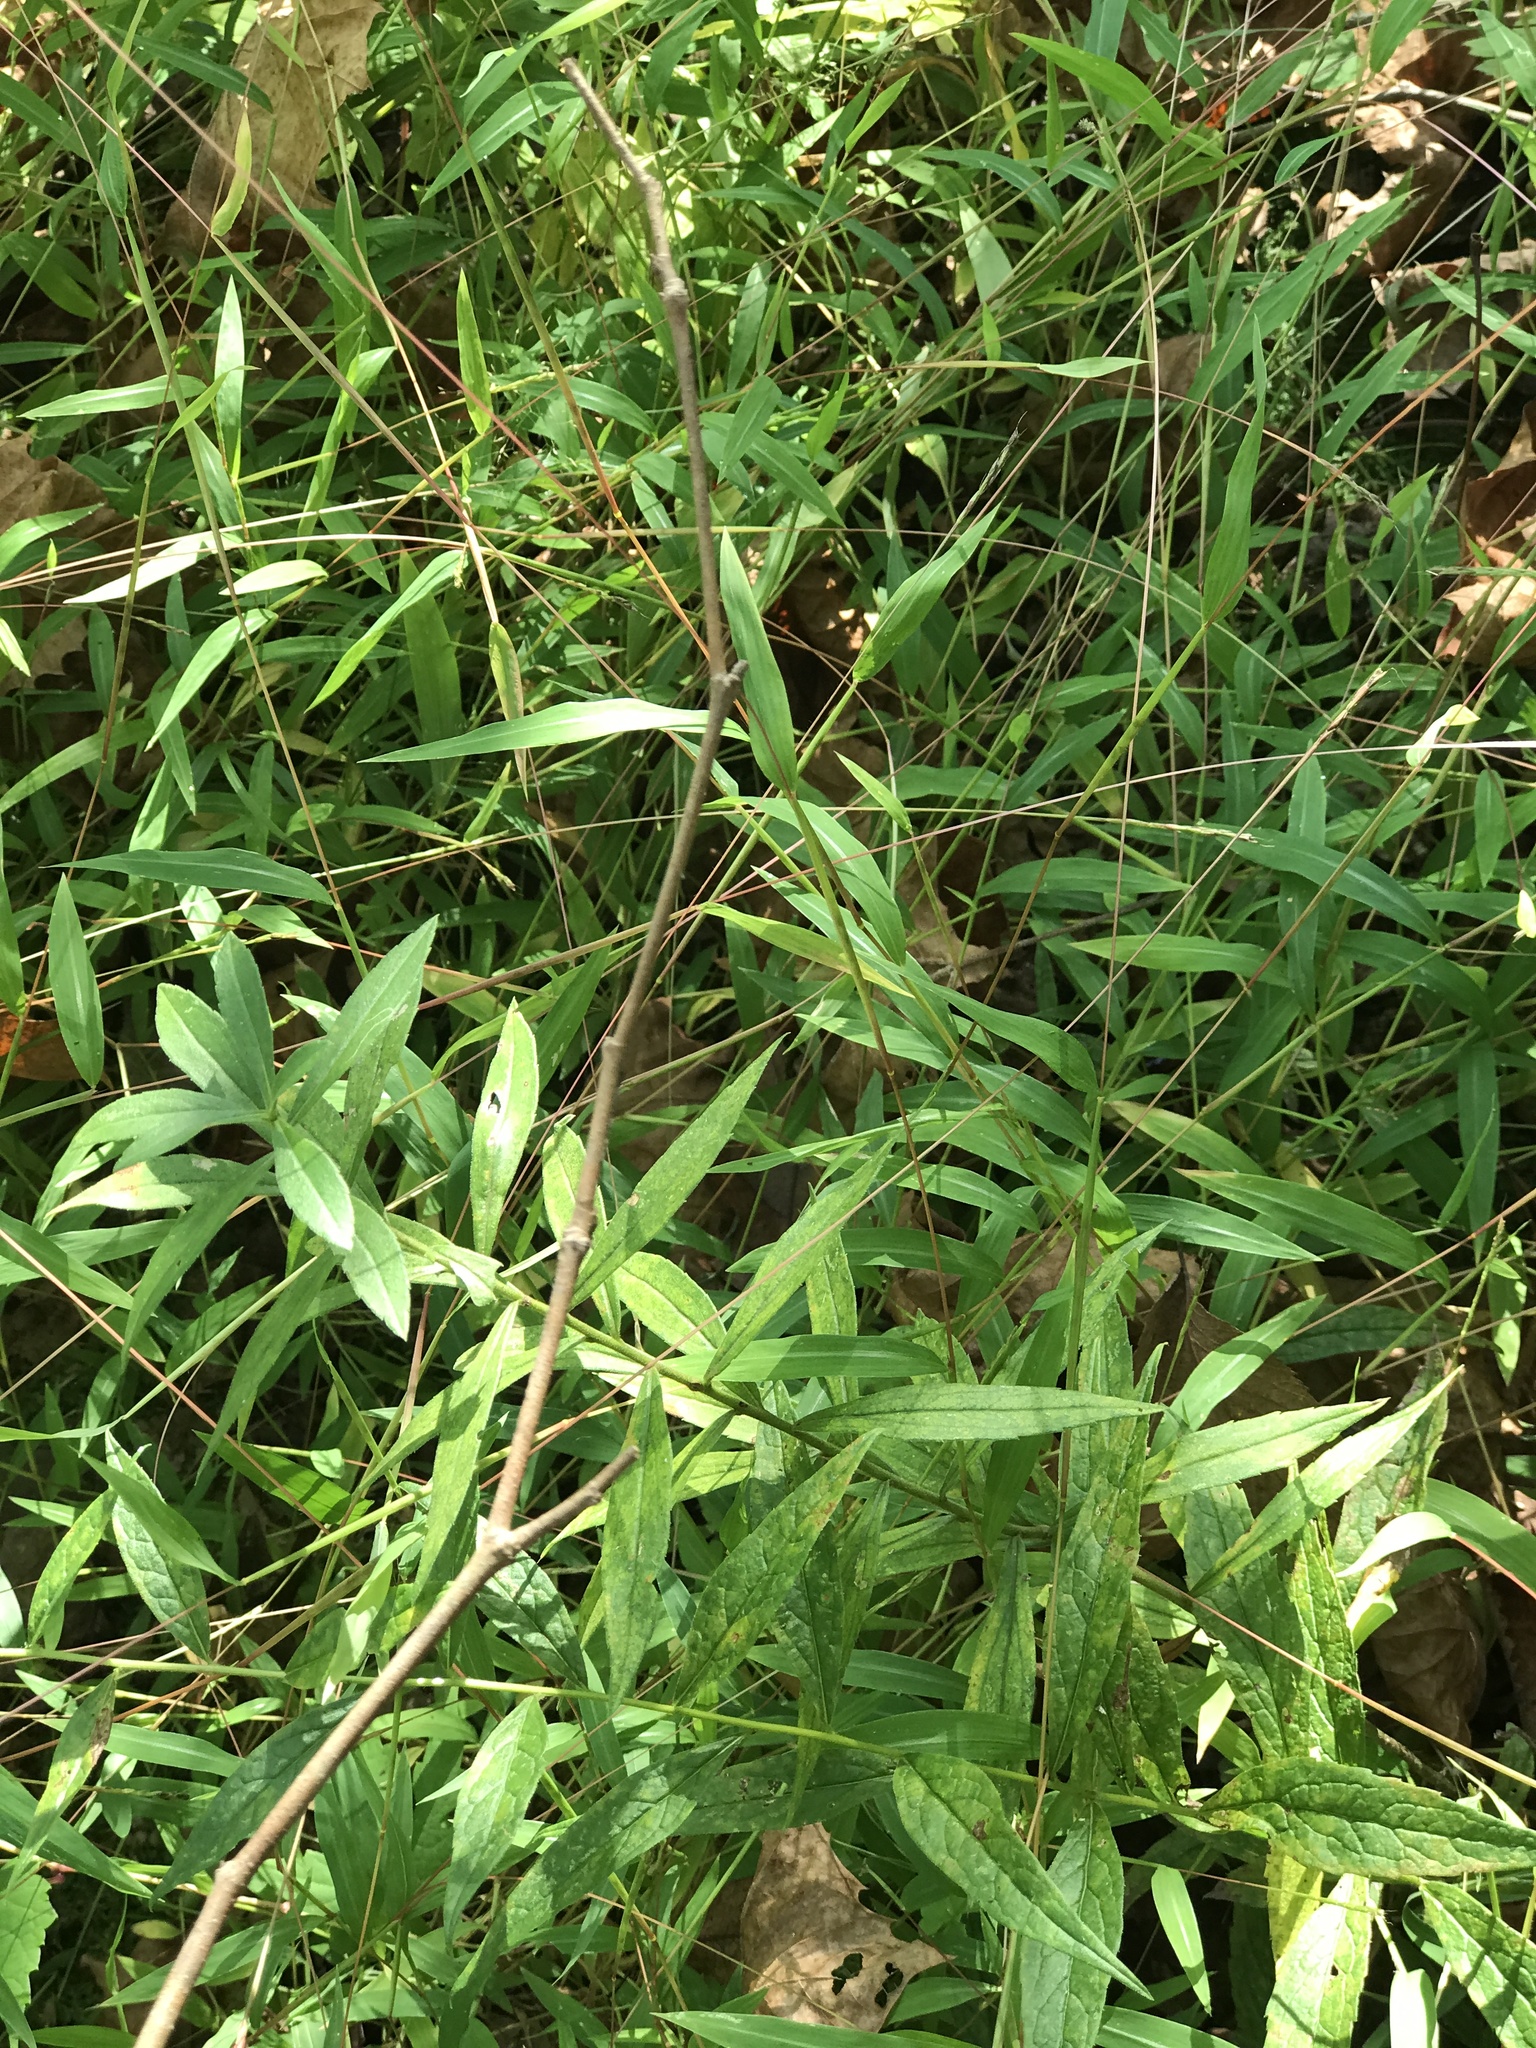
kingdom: Plantae
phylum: Tracheophyta
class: Liliopsida
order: Poales
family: Poaceae
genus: Microstegium
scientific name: Microstegium vimineum
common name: Japanese stiltgrass
